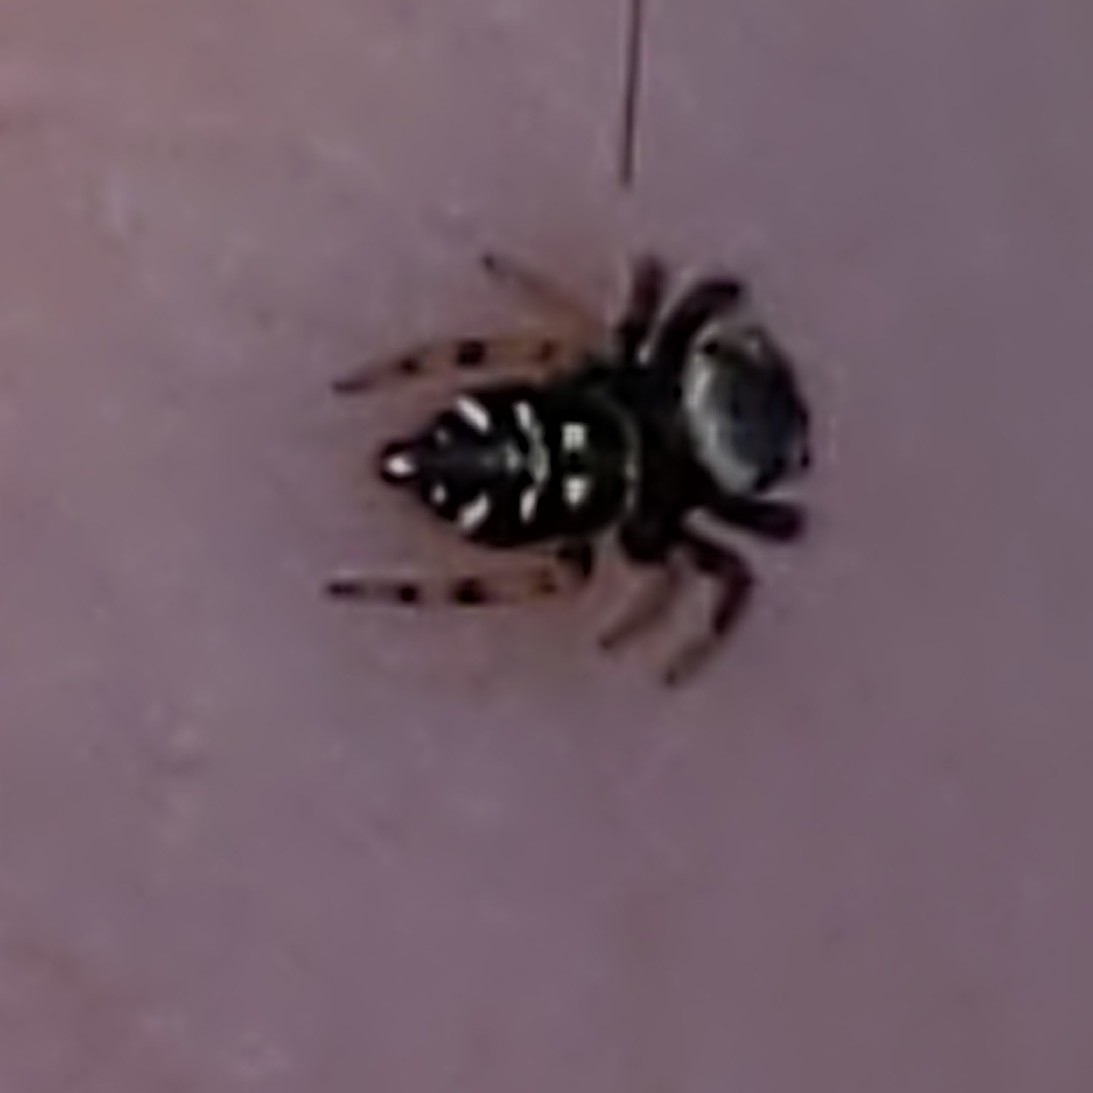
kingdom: Animalia
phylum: Arthropoda
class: Arachnida
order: Araneae
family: Salticidae
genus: Paraphidippus
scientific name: Paraphidippus aurantius
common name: Jumping spiders
